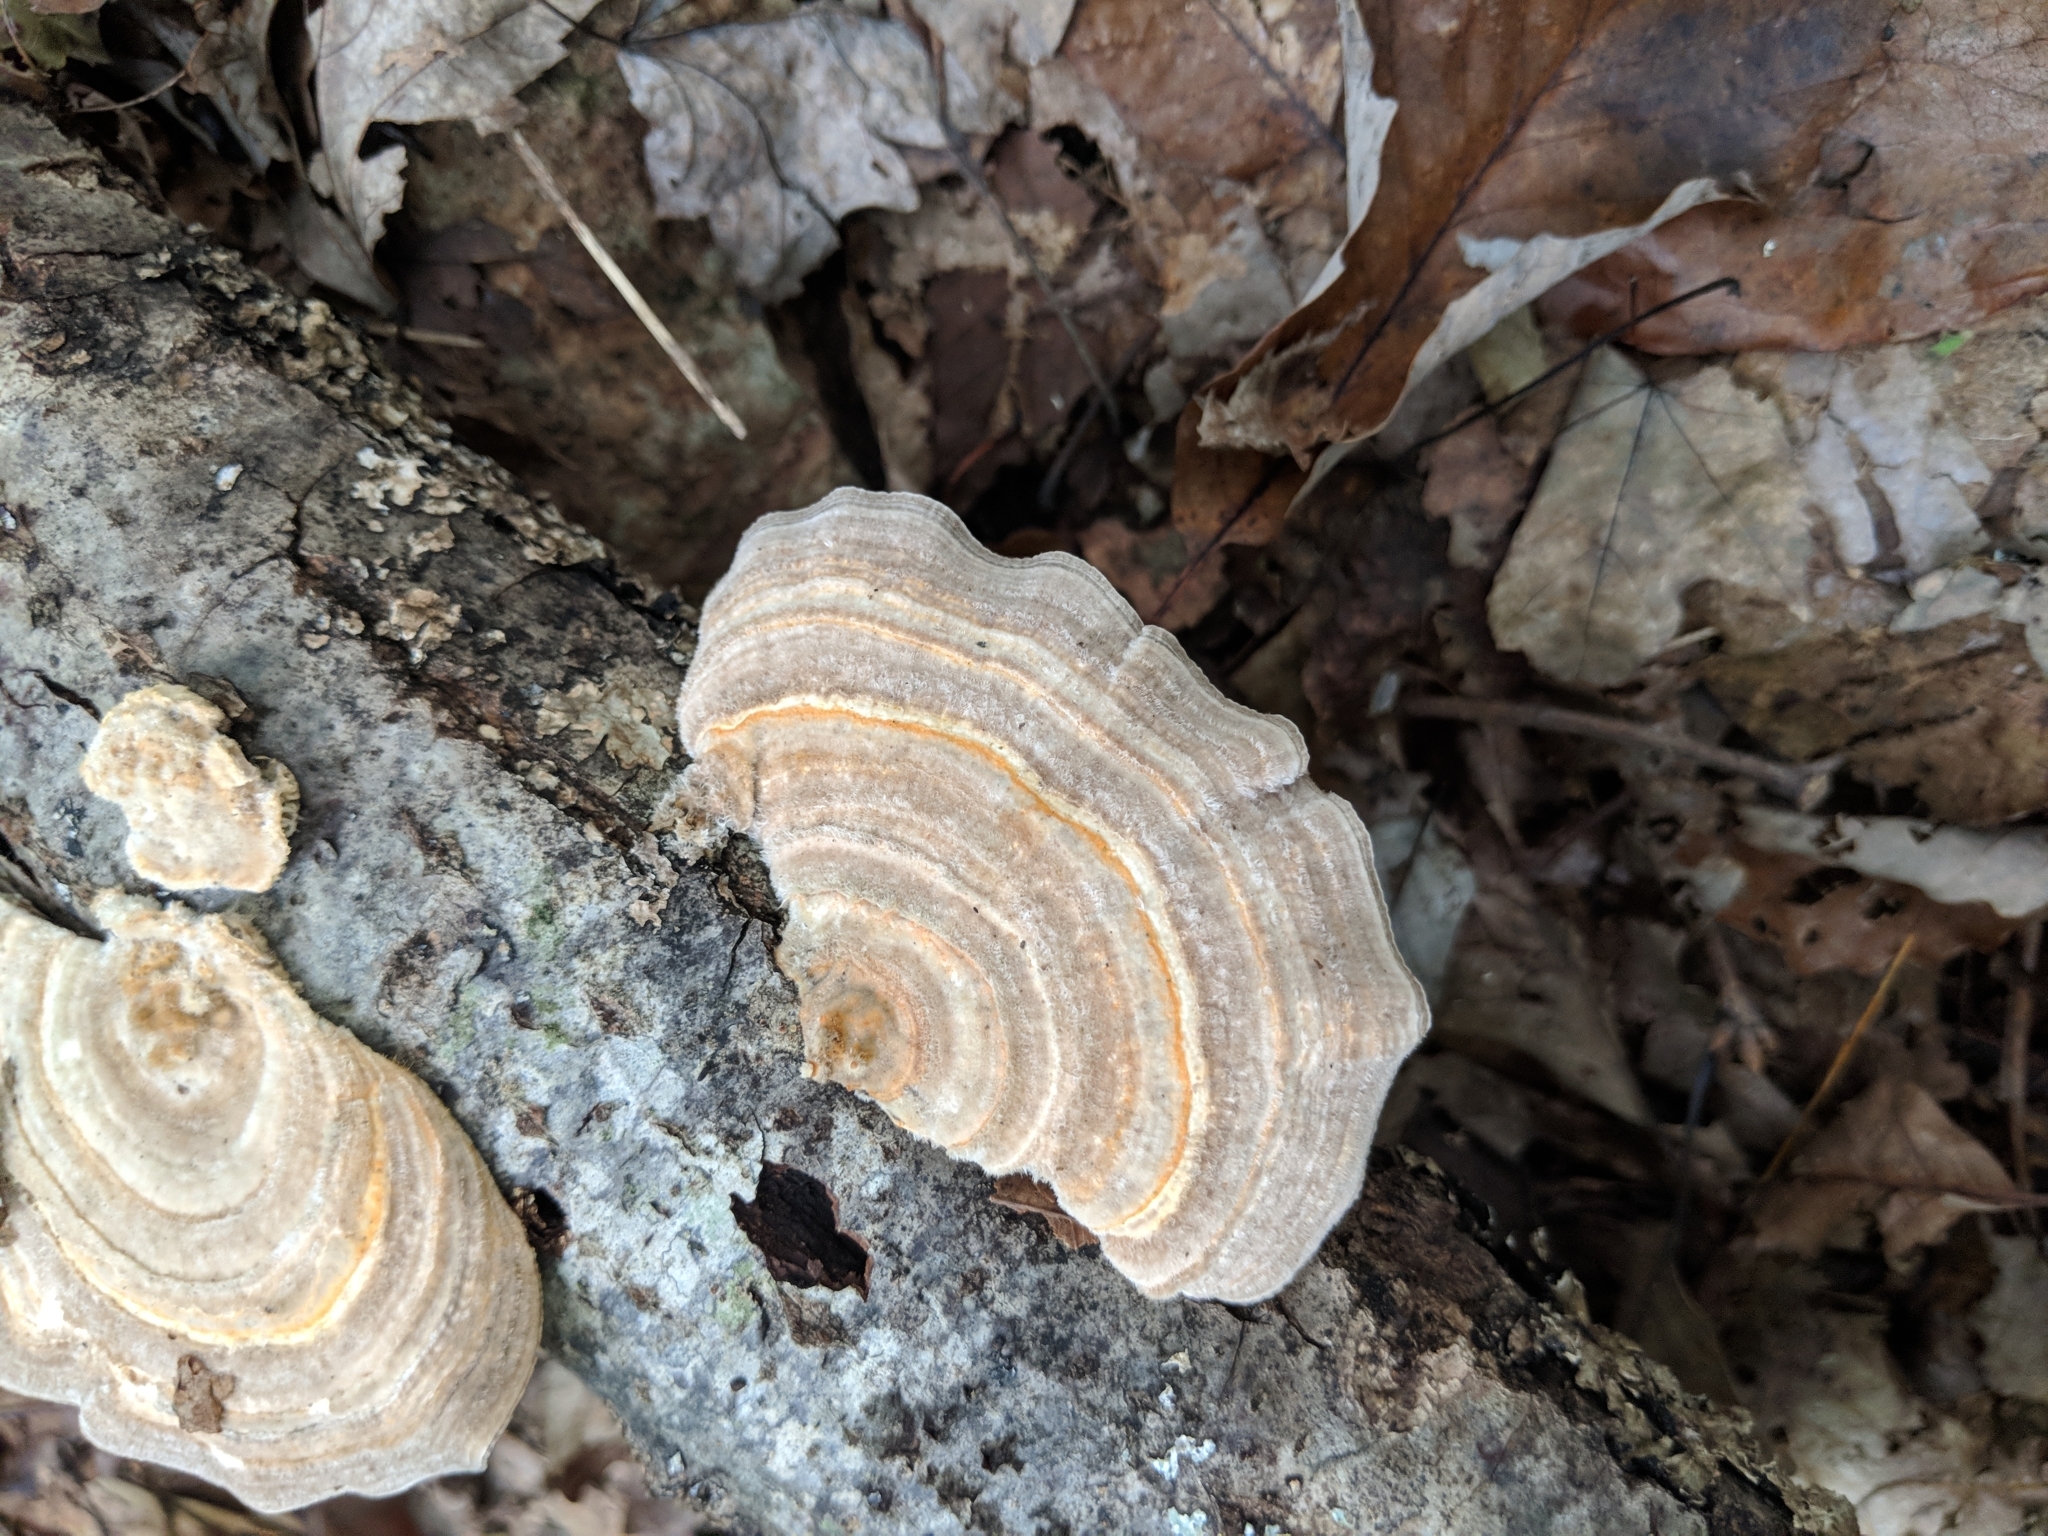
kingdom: Fungi
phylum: Basidiomycota
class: Agaricomycetes
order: Polyporales
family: Polyporaceae
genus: Lenzites
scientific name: Lenzites betulinus
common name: Birch mazegill
